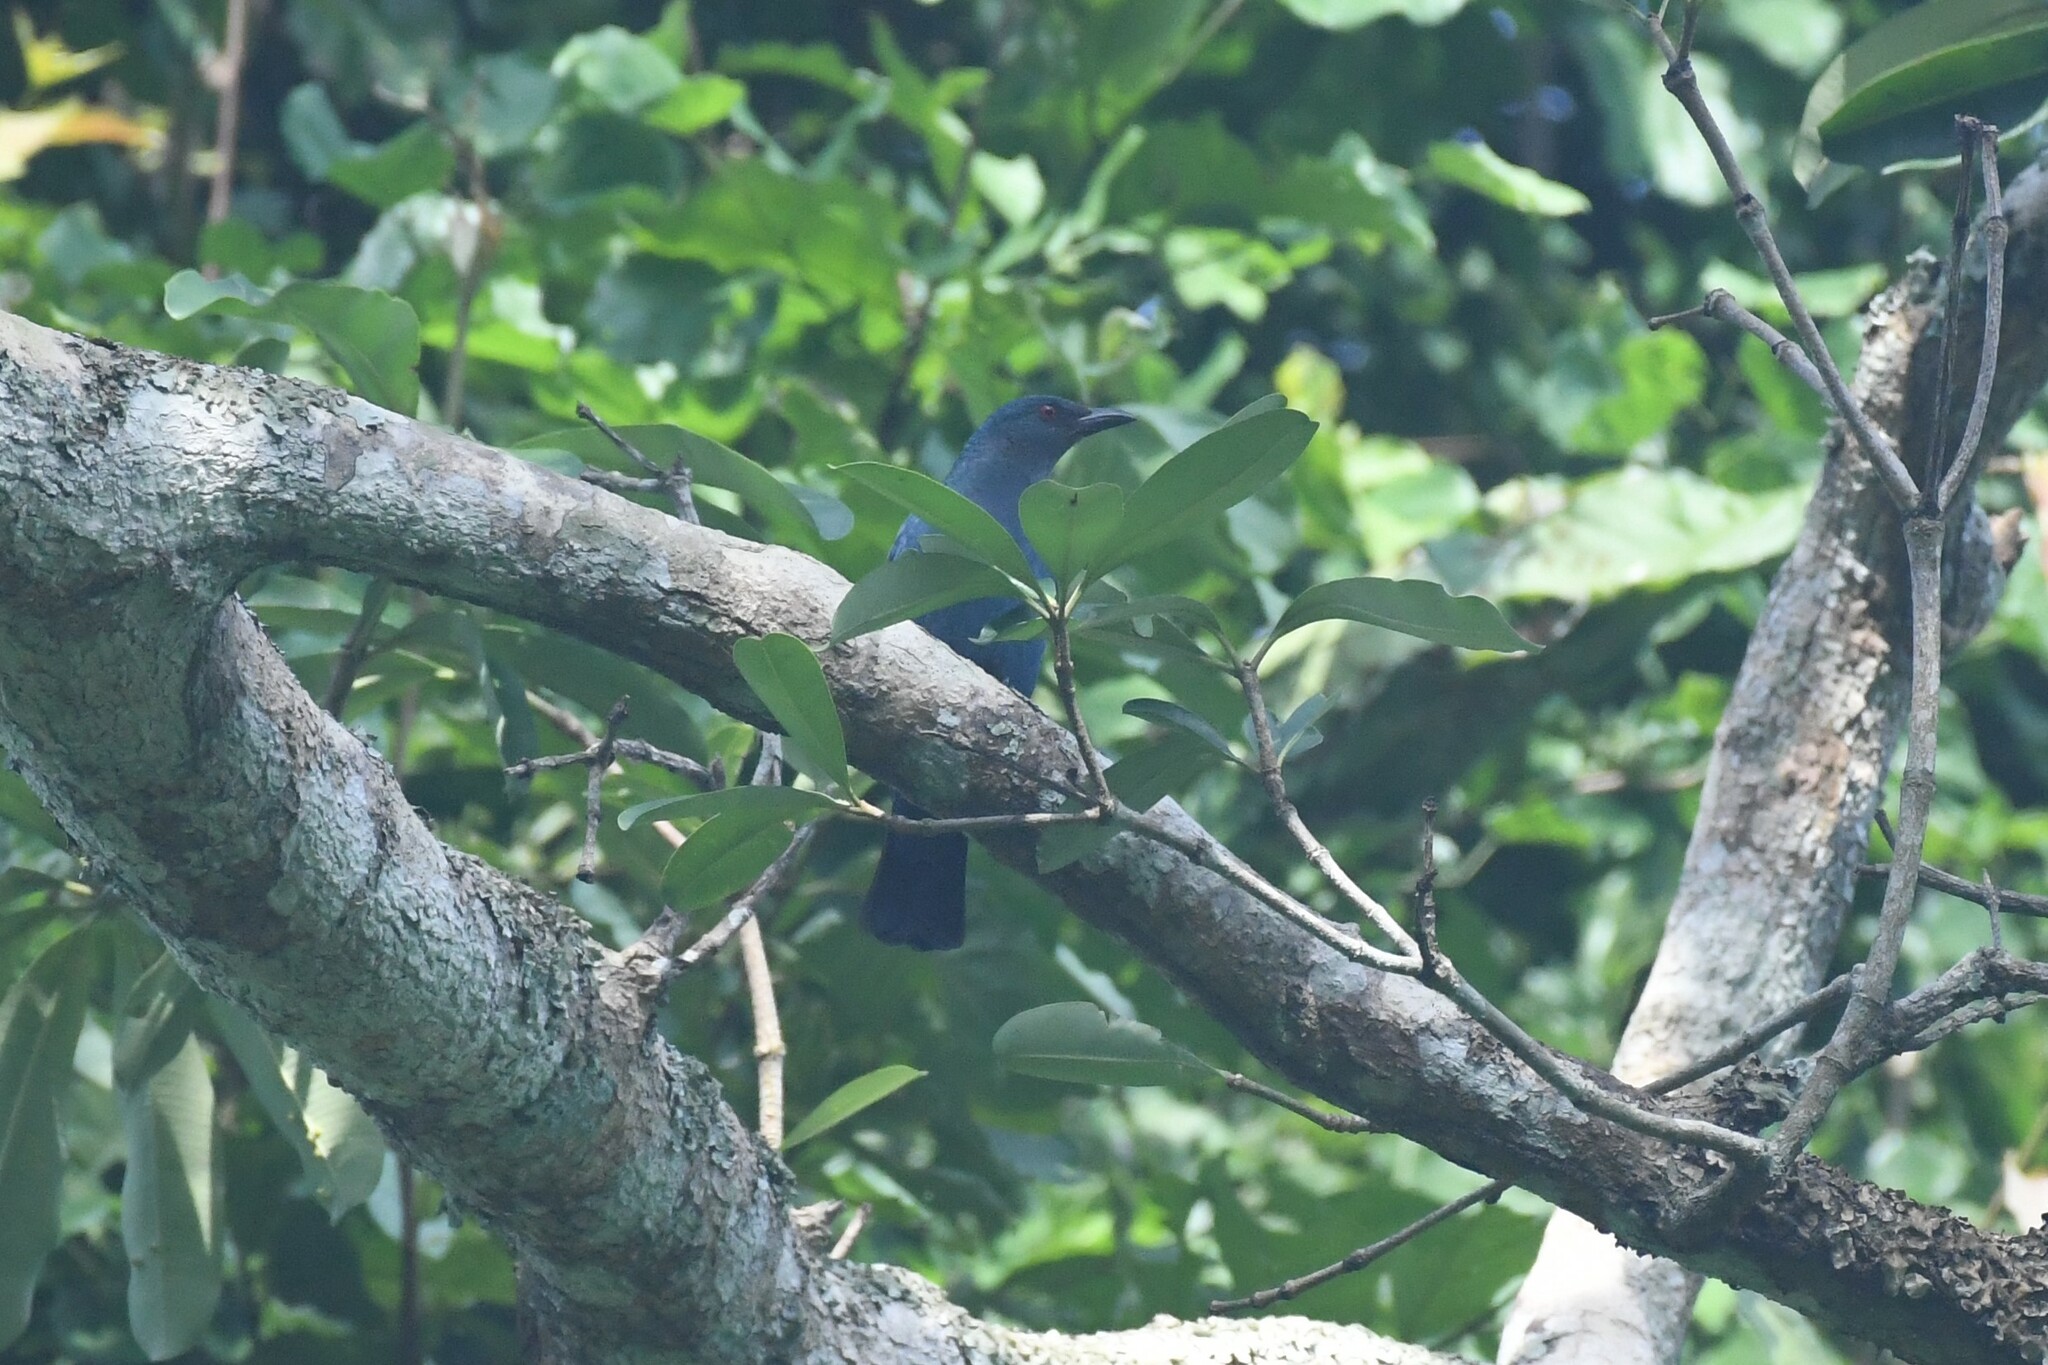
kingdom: Animalia
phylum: Chordata
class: Aves
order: Passeriformes
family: Irenidae
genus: Irena
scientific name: Irena puella
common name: Asian fairy-bluebird
